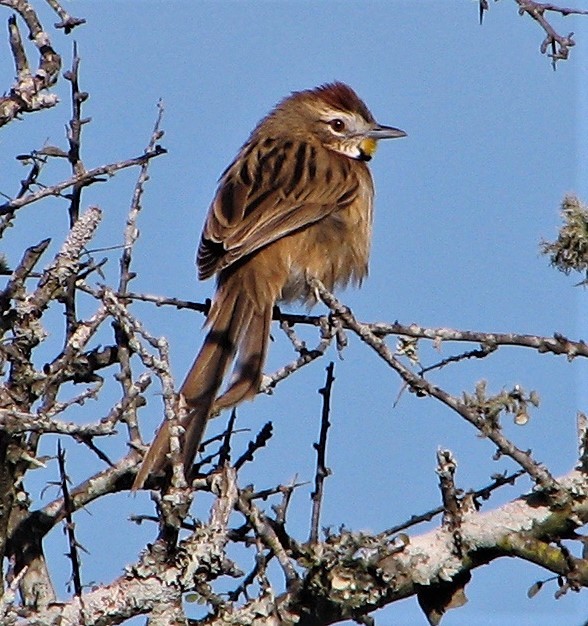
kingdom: Animalia
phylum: Chordata
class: Aves
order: Passeriformes
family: Furnariidae
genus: Schoeniophylax
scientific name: Schoeniophylax phryganophilus
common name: Chotoy spinetail
